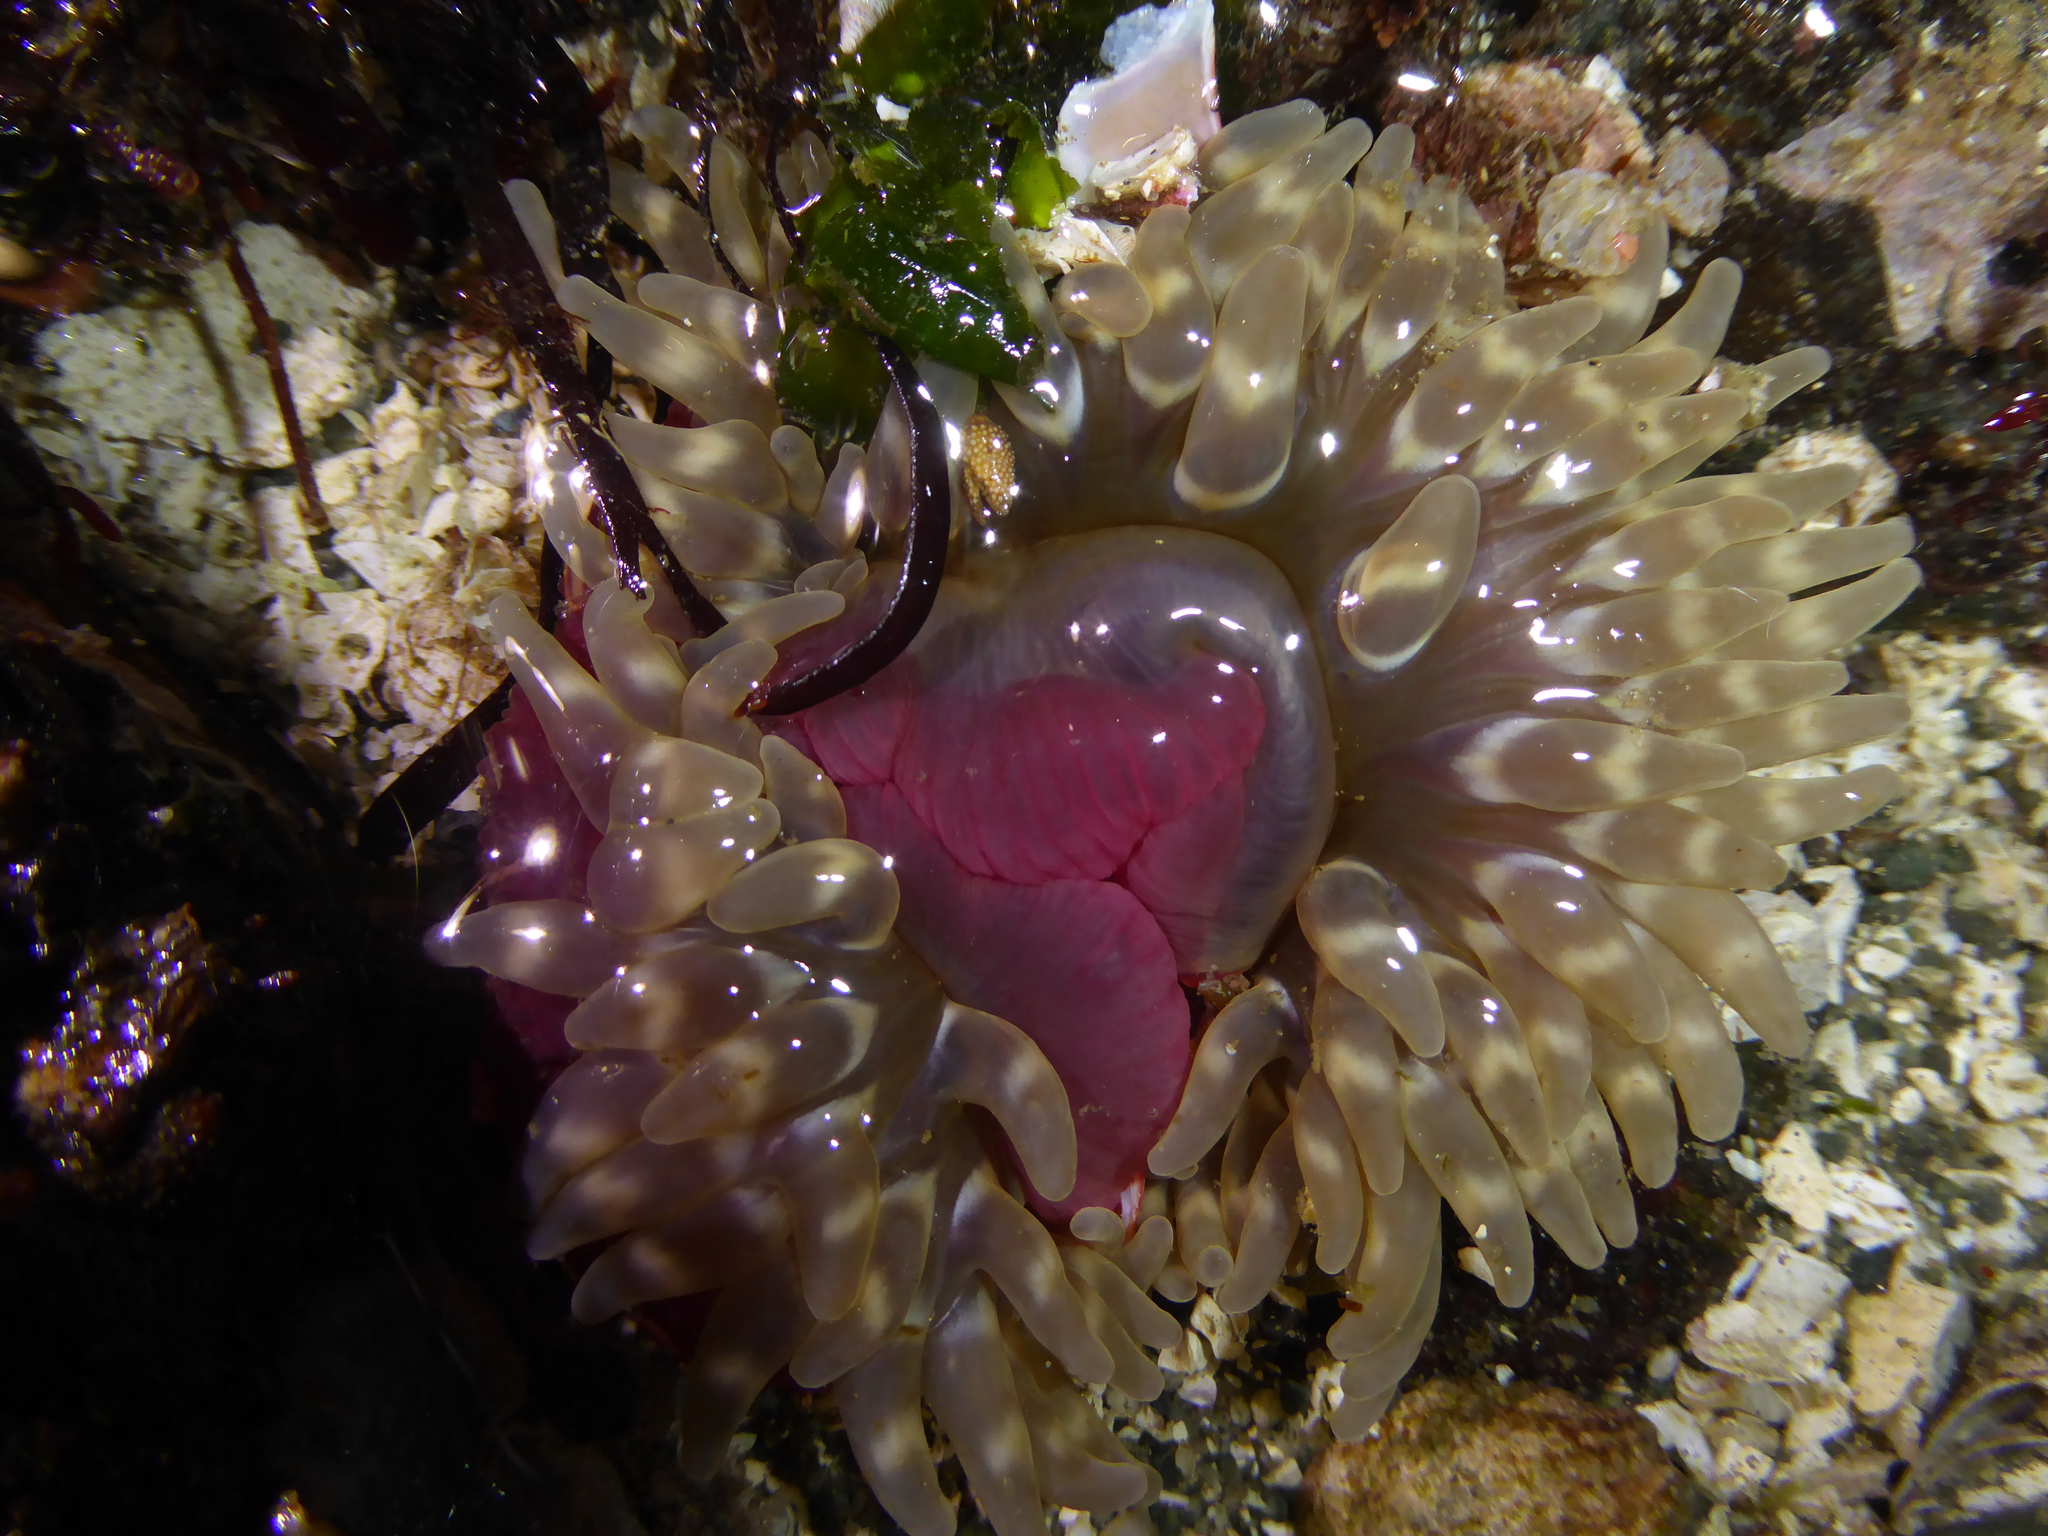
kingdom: Animalia
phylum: Cnidaria
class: Anthozoa
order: Actiniaria
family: Actiniidae
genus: Urticina
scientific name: Urticina clandestina
